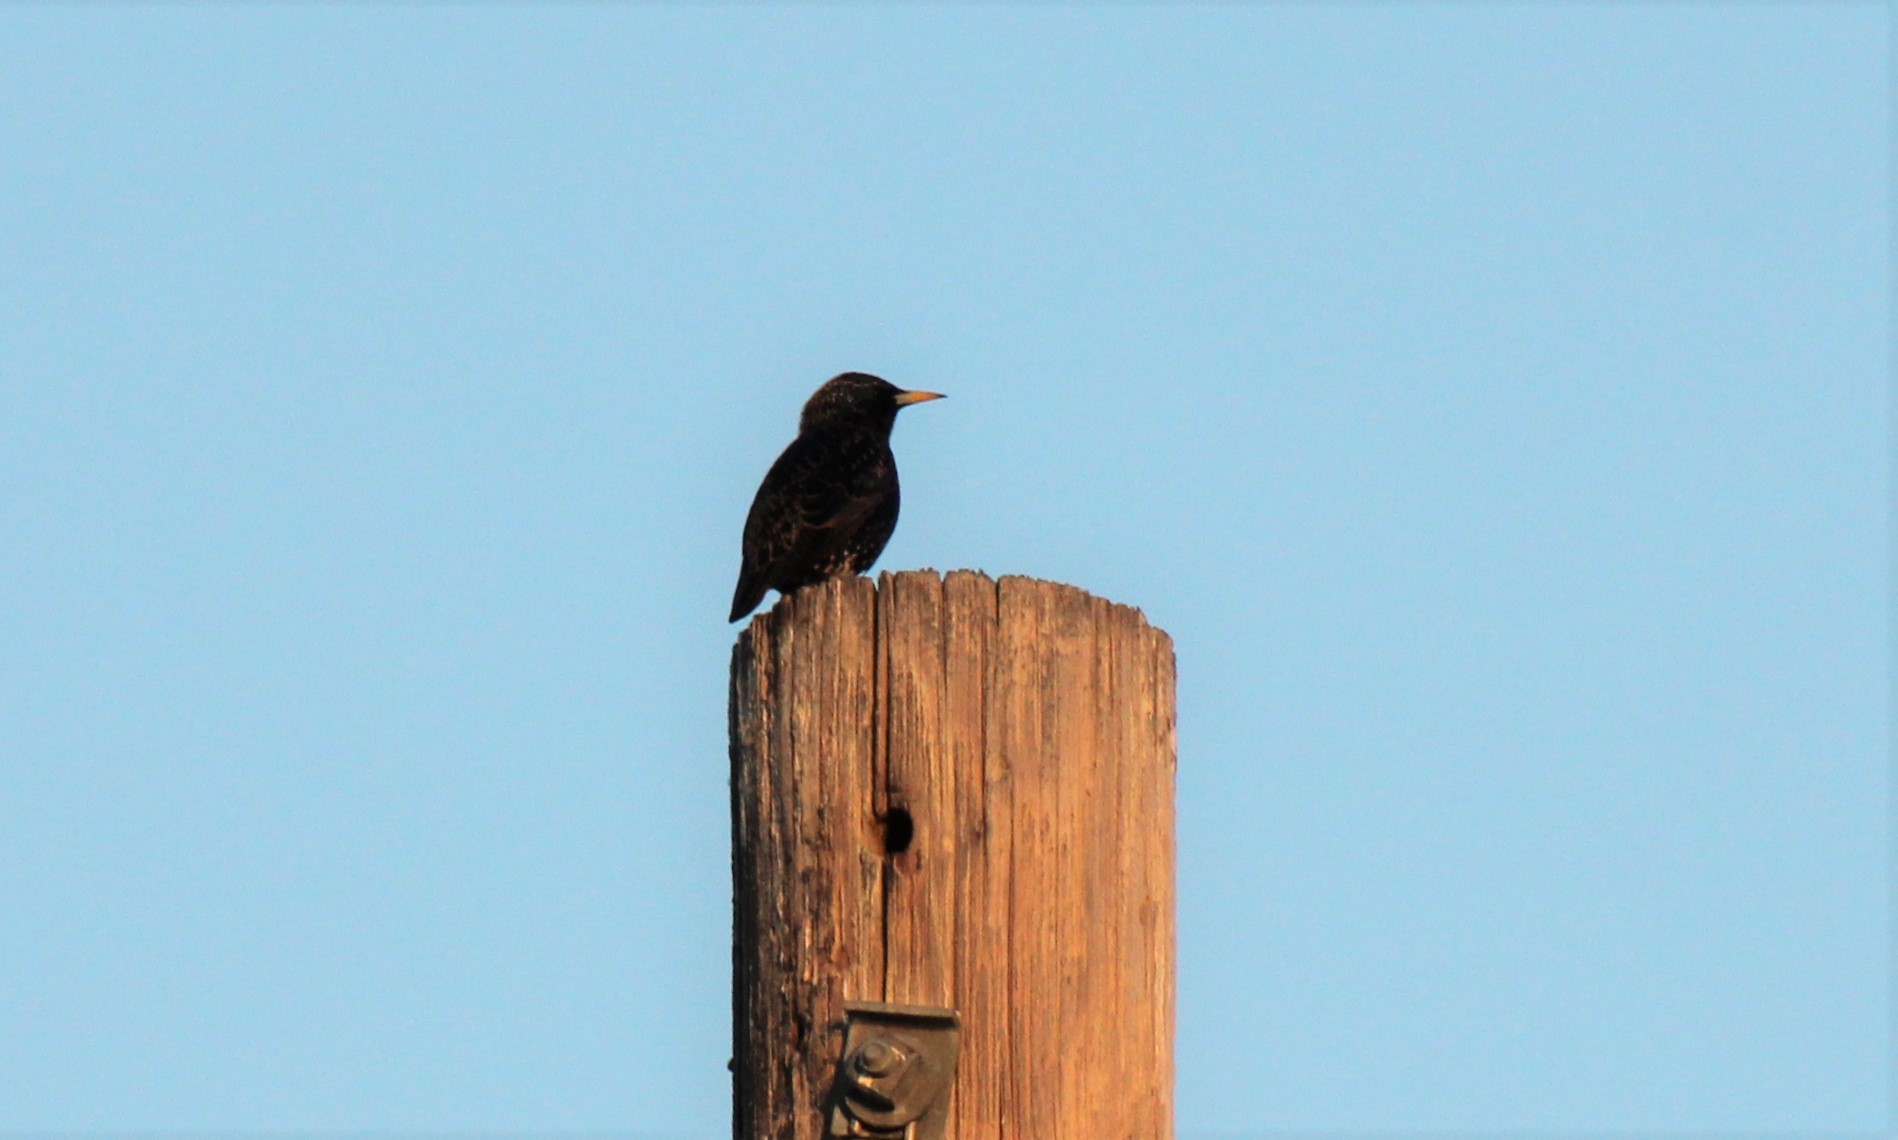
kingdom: Animalia
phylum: Chordata
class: Aves
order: Passeriformes
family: Sturnidae
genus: Sturnus
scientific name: Sturnus vulgaris
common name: Common starling
